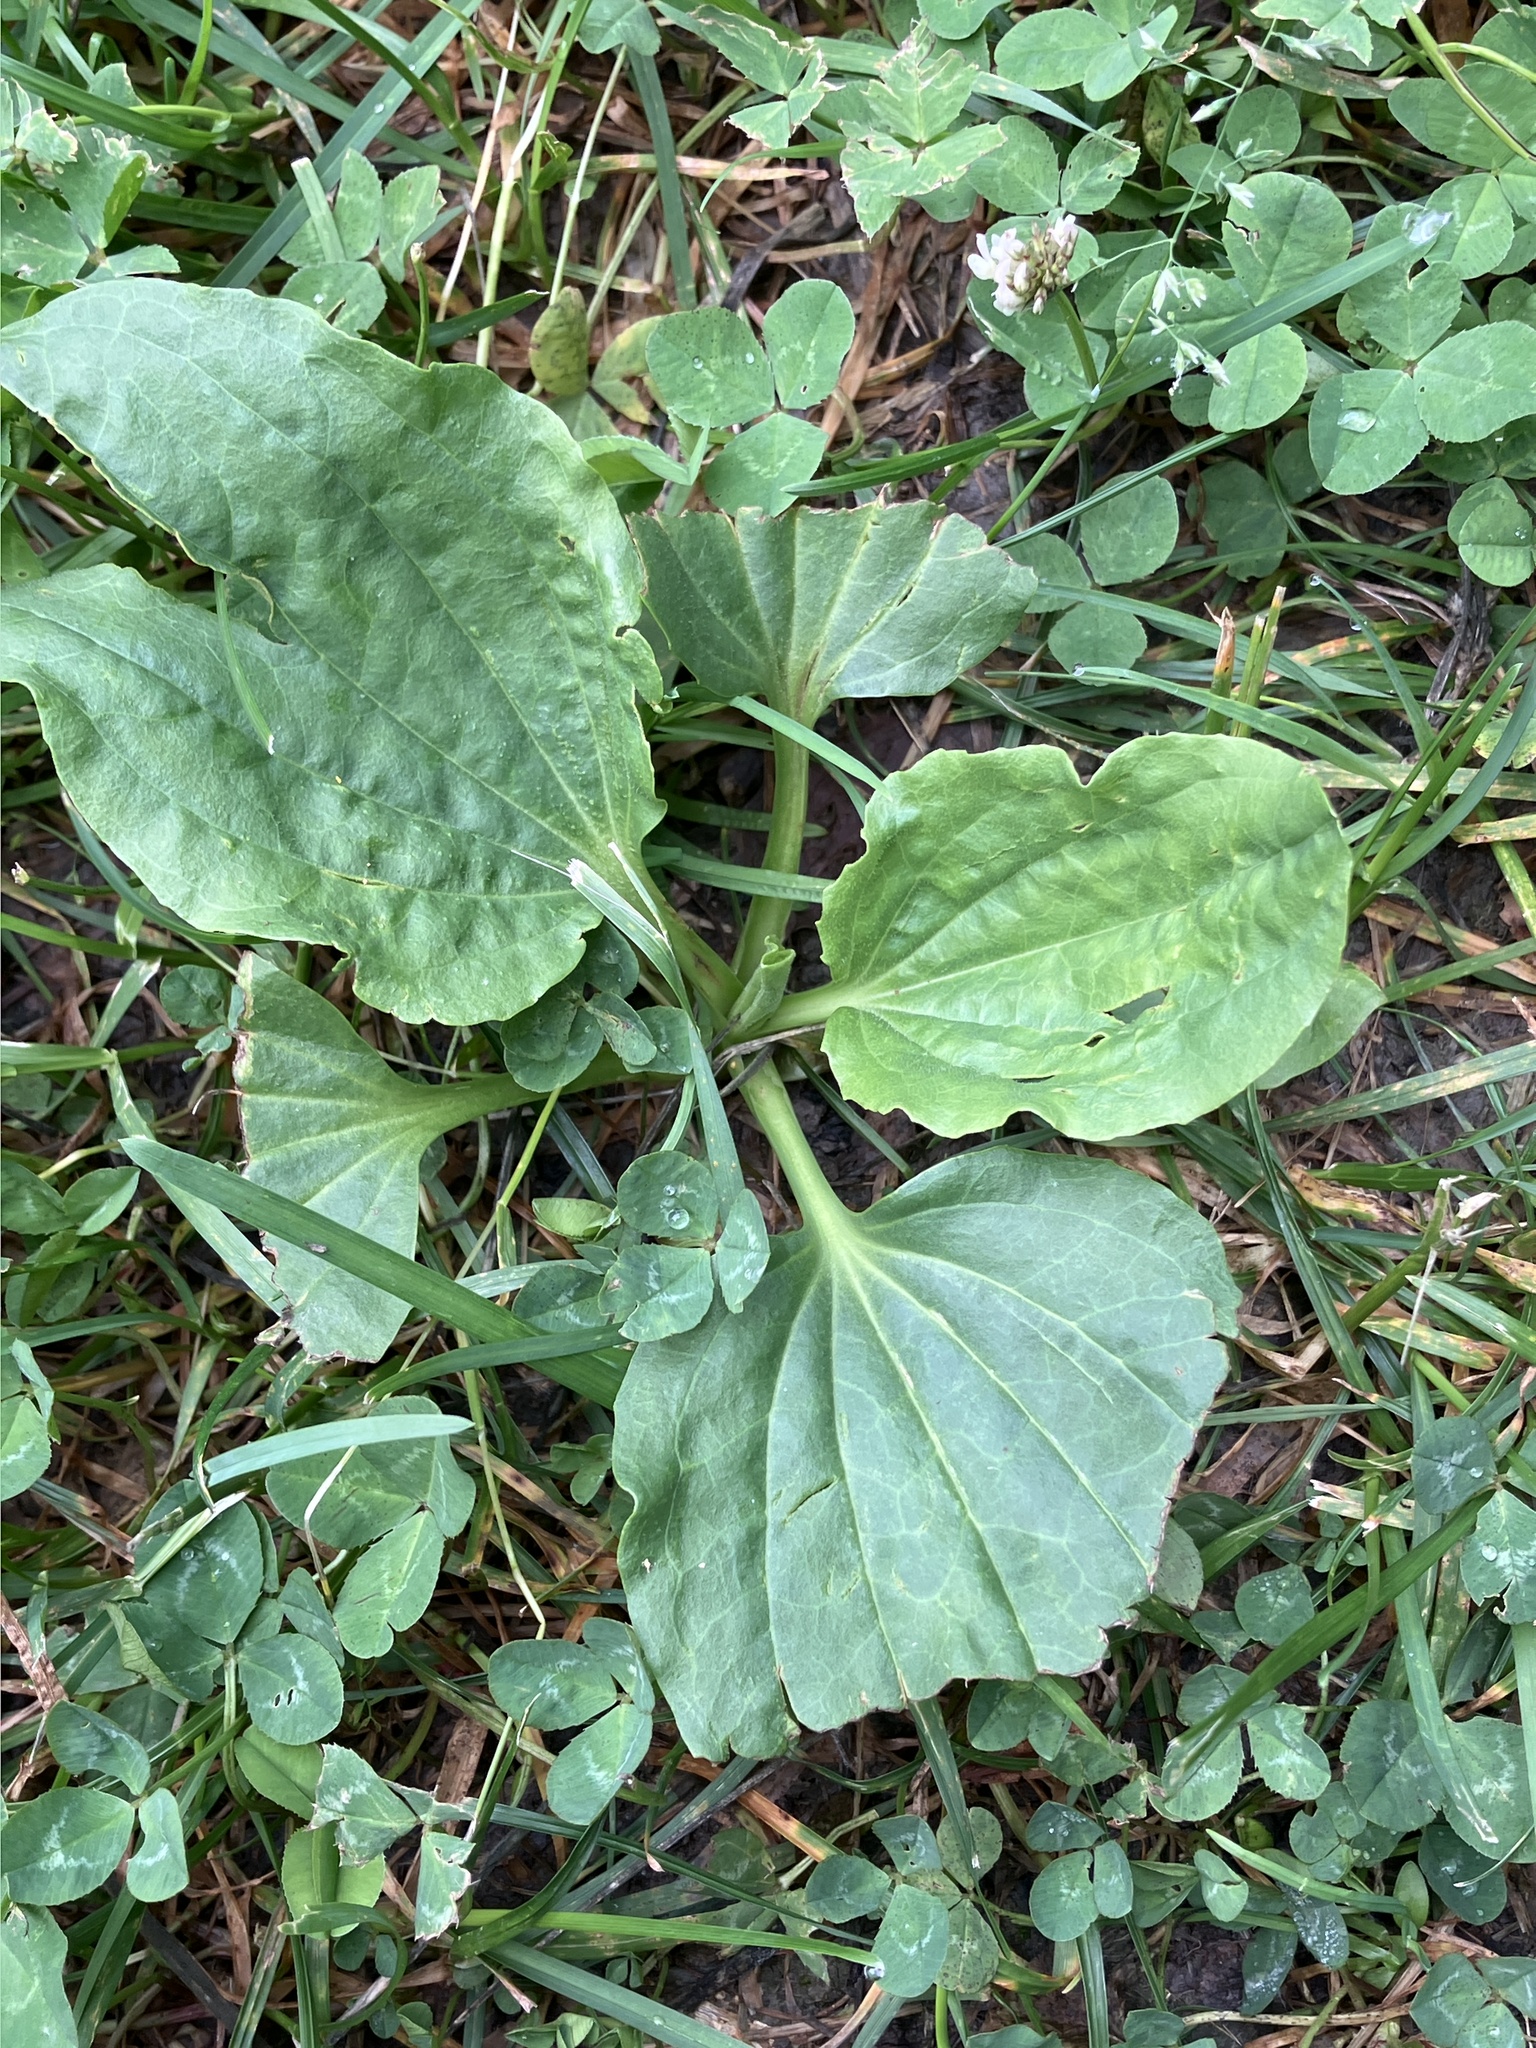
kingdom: Plantae
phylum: Tracheophyta
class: Magnoliopsida
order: Lamiales
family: Plantaginaceae
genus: Plantago
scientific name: Plantago major
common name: Common plantain
